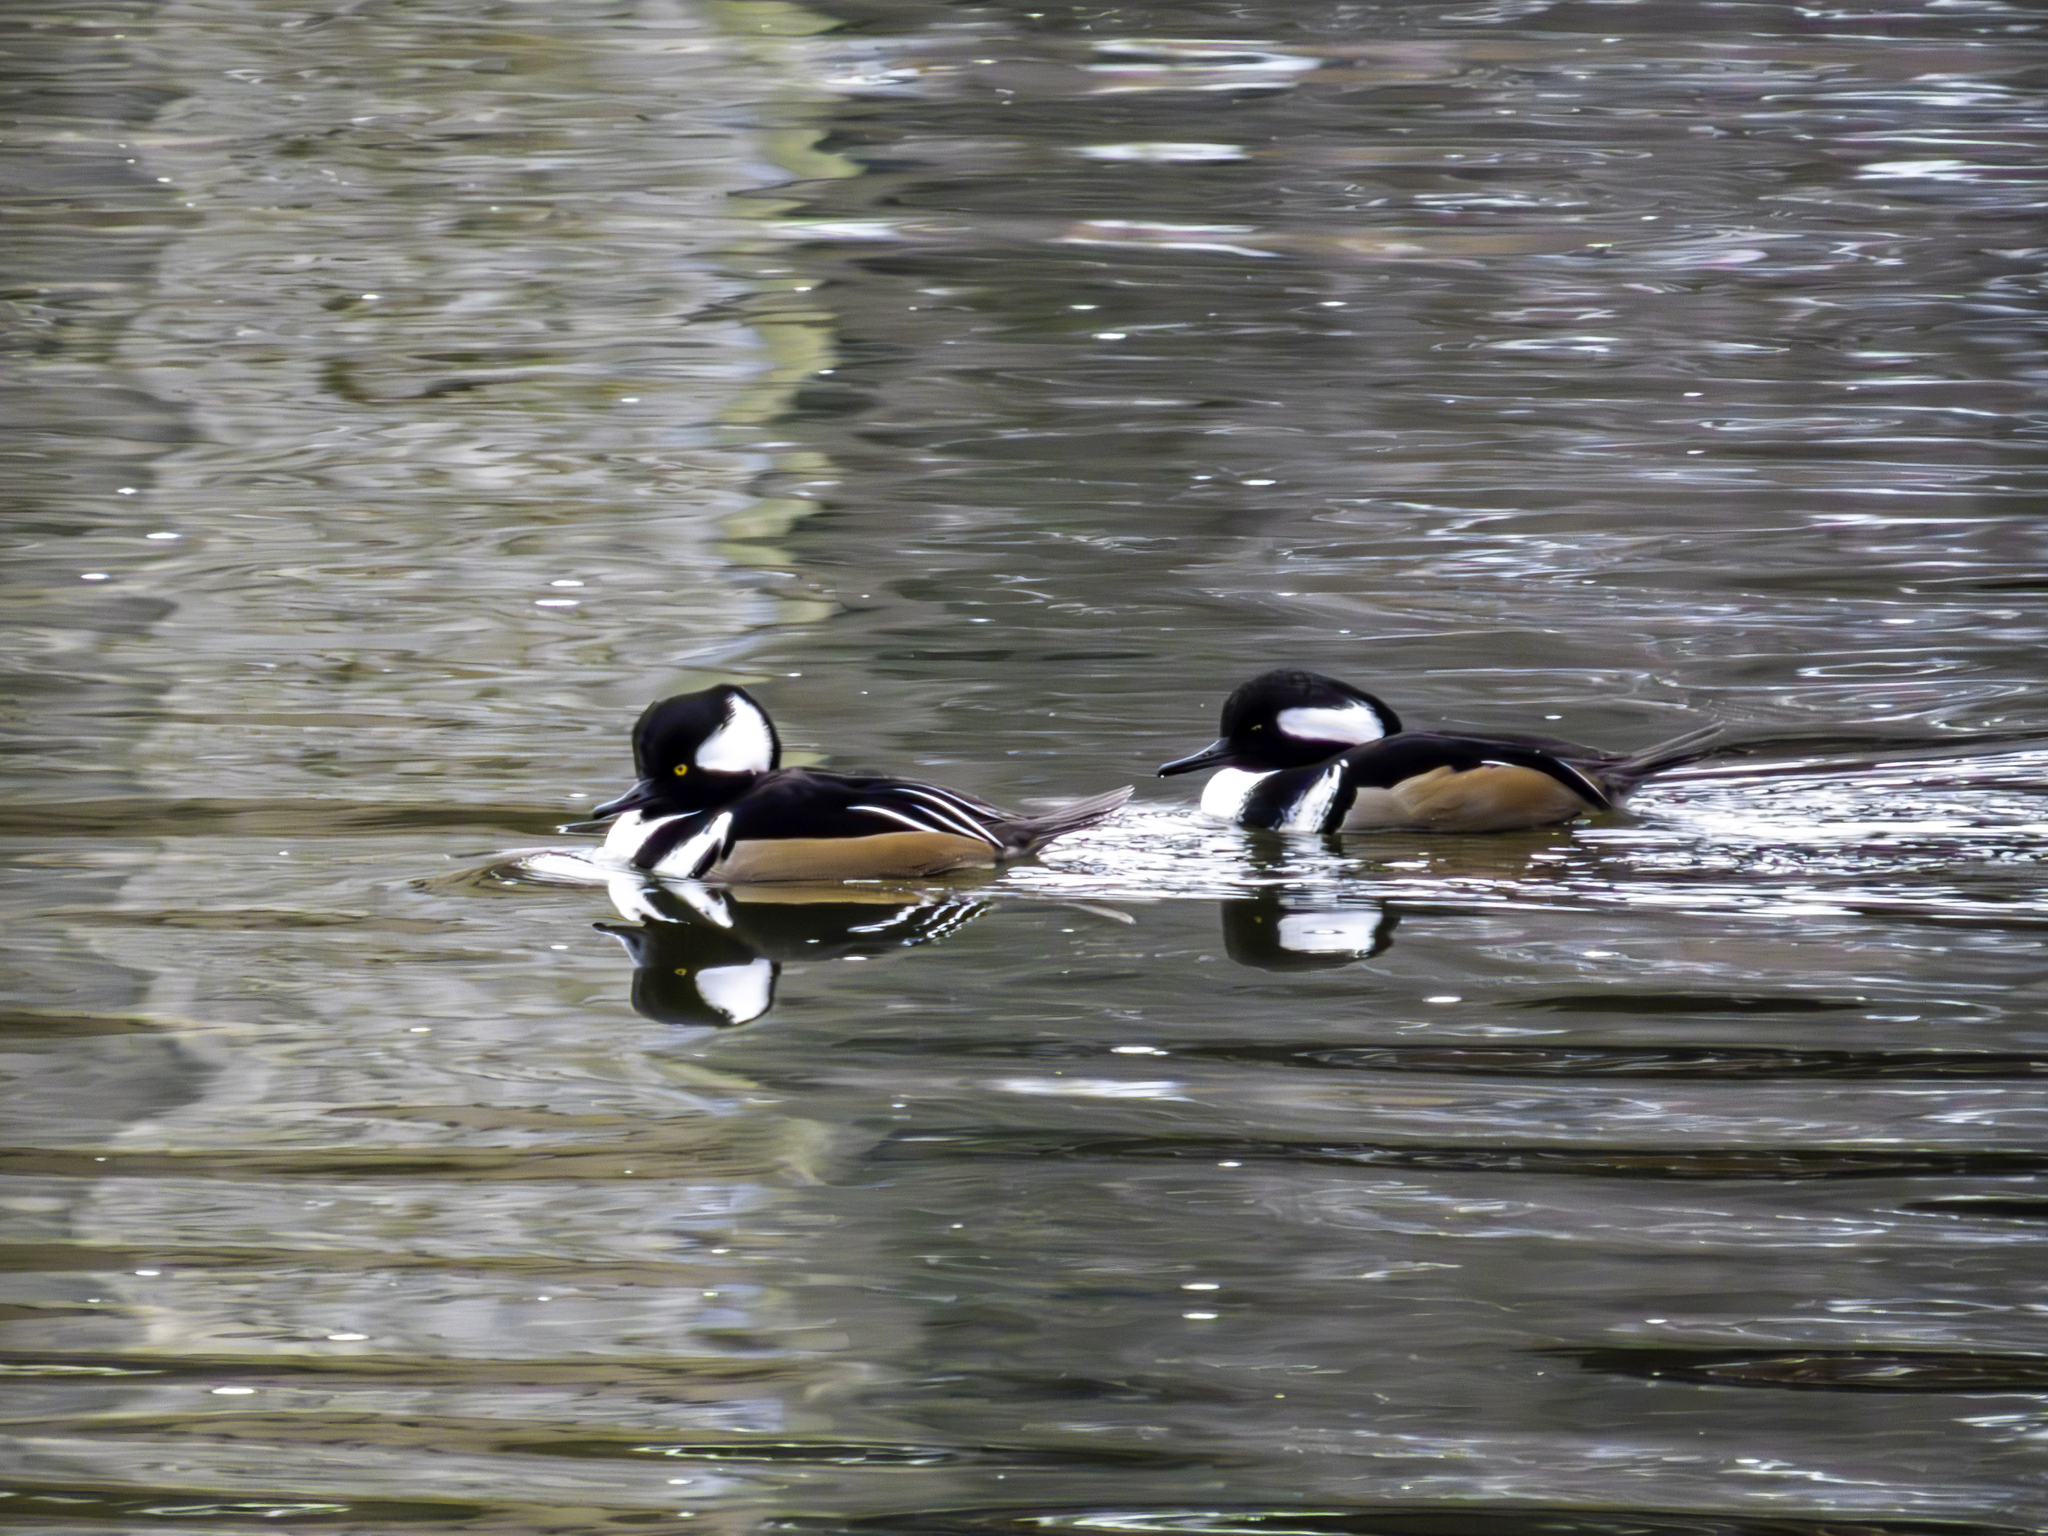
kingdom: Animalia
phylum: Chordata
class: Aves
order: Anseriformes
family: Anatidae
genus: Lophodytes
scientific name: Lophodytes cucullatus
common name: Hooded merganser
